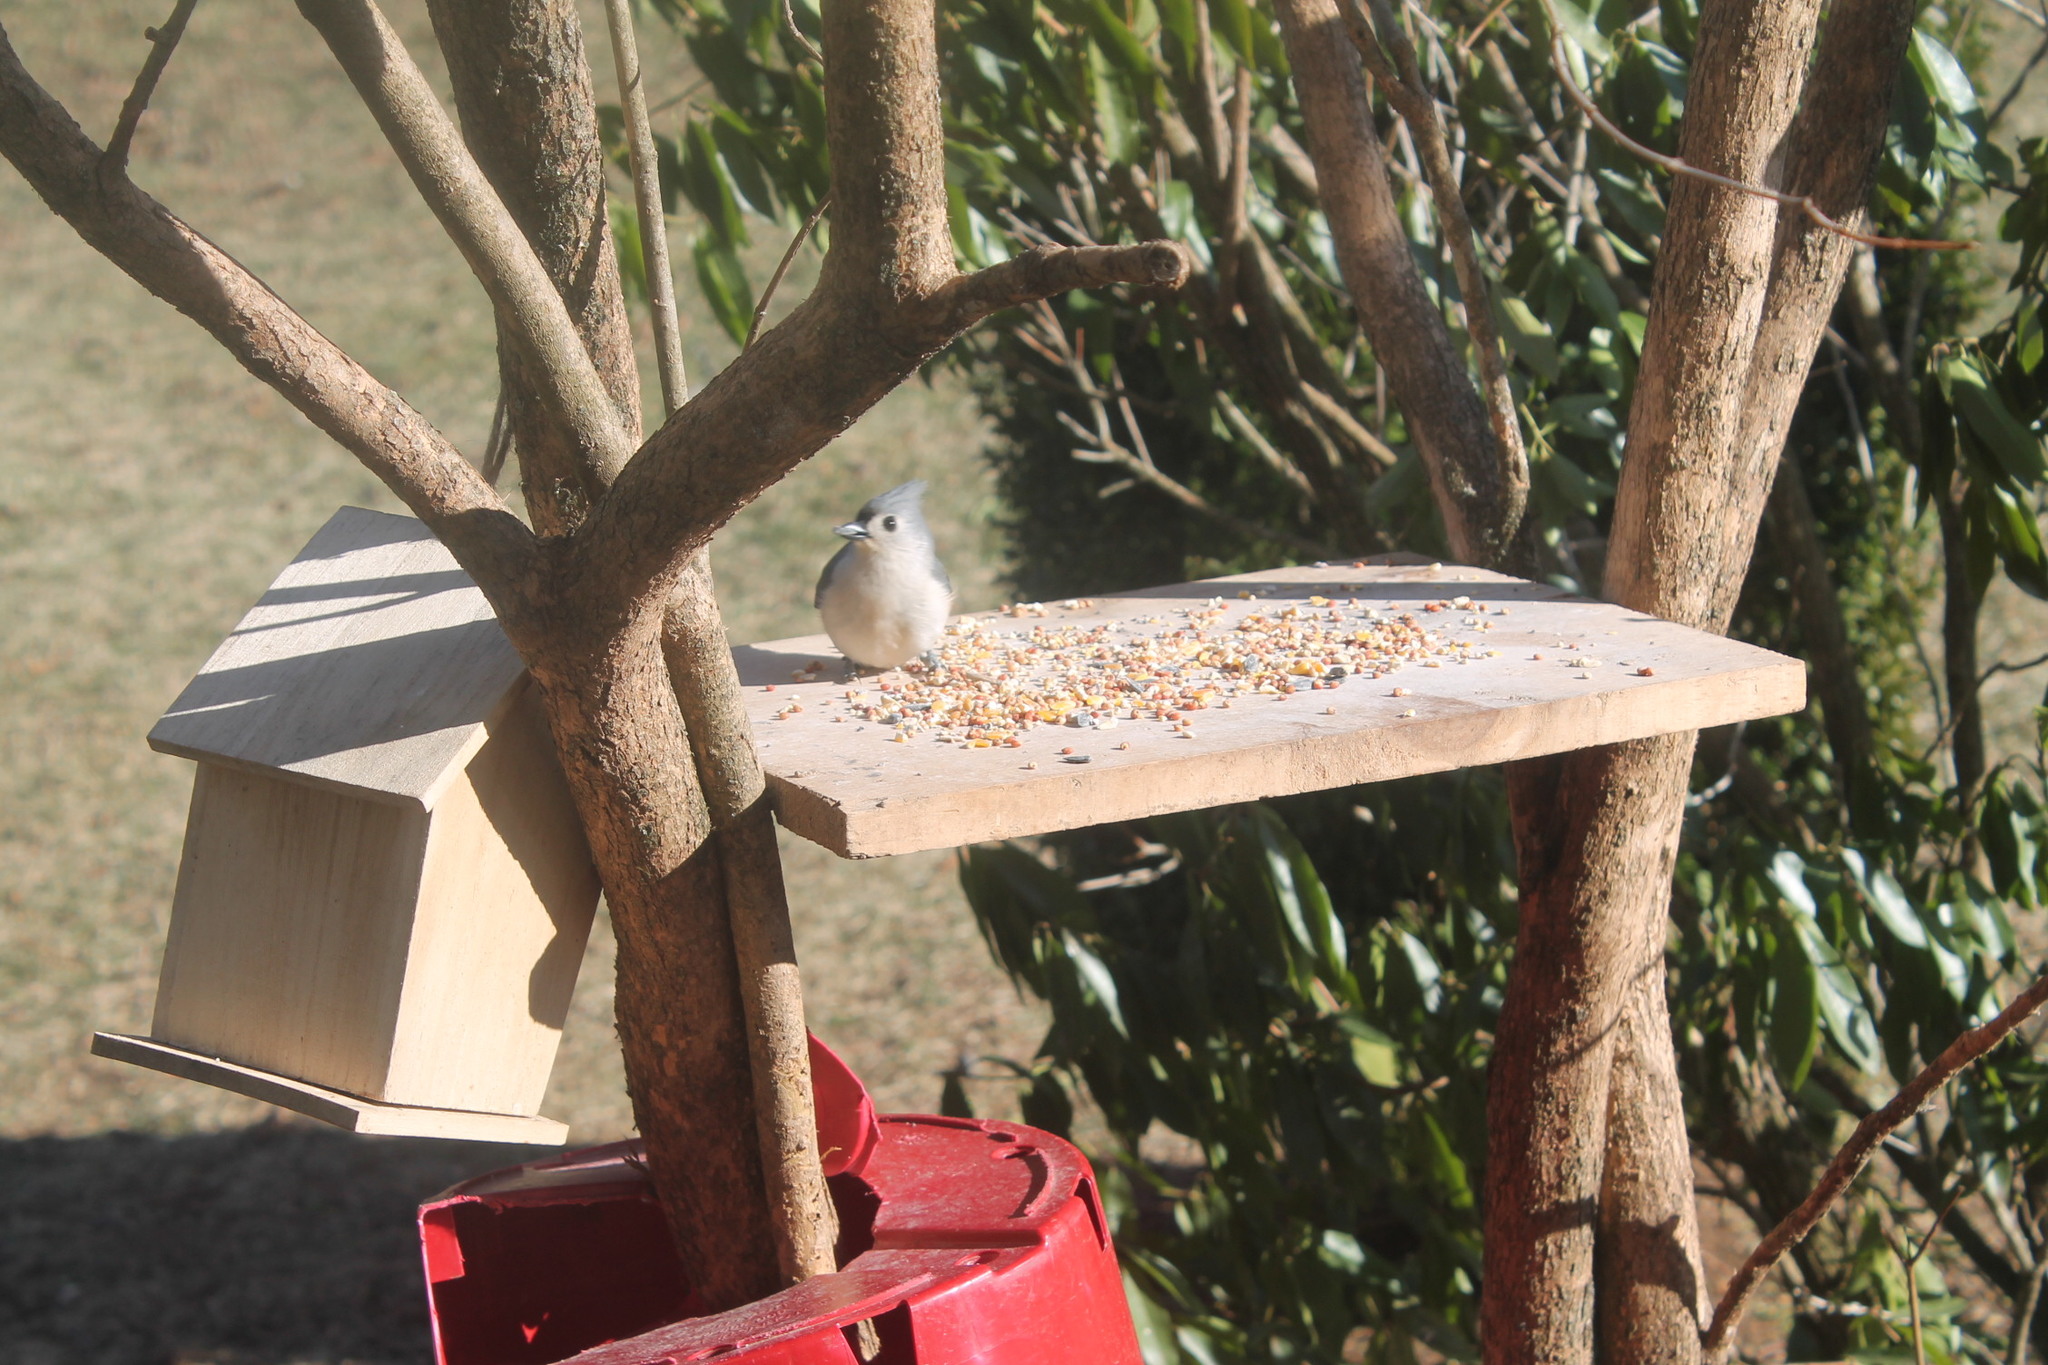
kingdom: Animalia
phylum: Chordata
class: Aves
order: Passeriformes
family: Paridae
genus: Baeolophus
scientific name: Baeolophus bicolor
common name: Tufted titmouse
